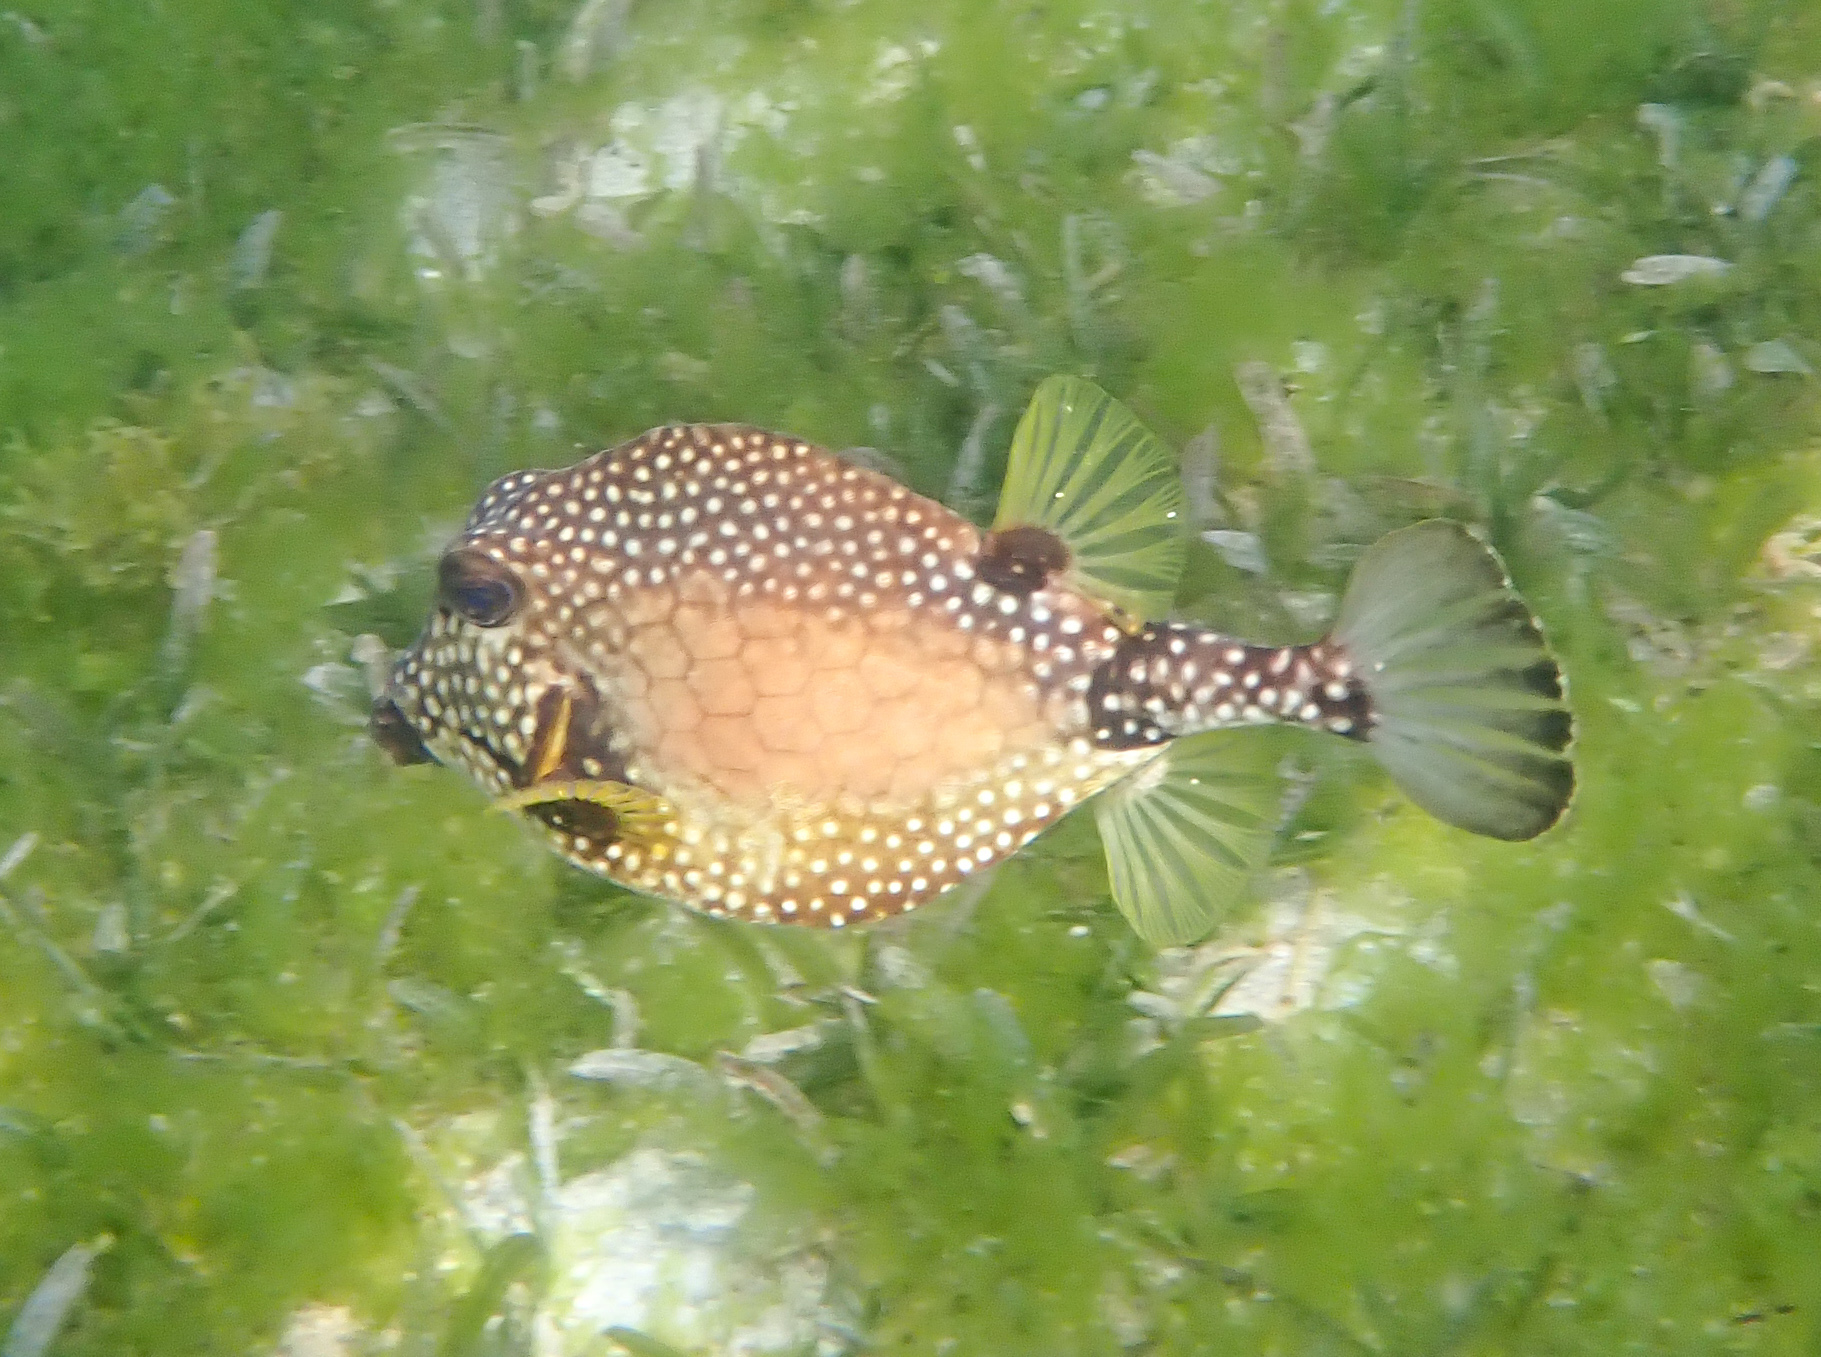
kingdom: Animalia
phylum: Chordata
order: Tetraodontiformes
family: Ostraciidae
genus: Lactophrys
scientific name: Lactophrys triqueter
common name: Smooth trunkfish
